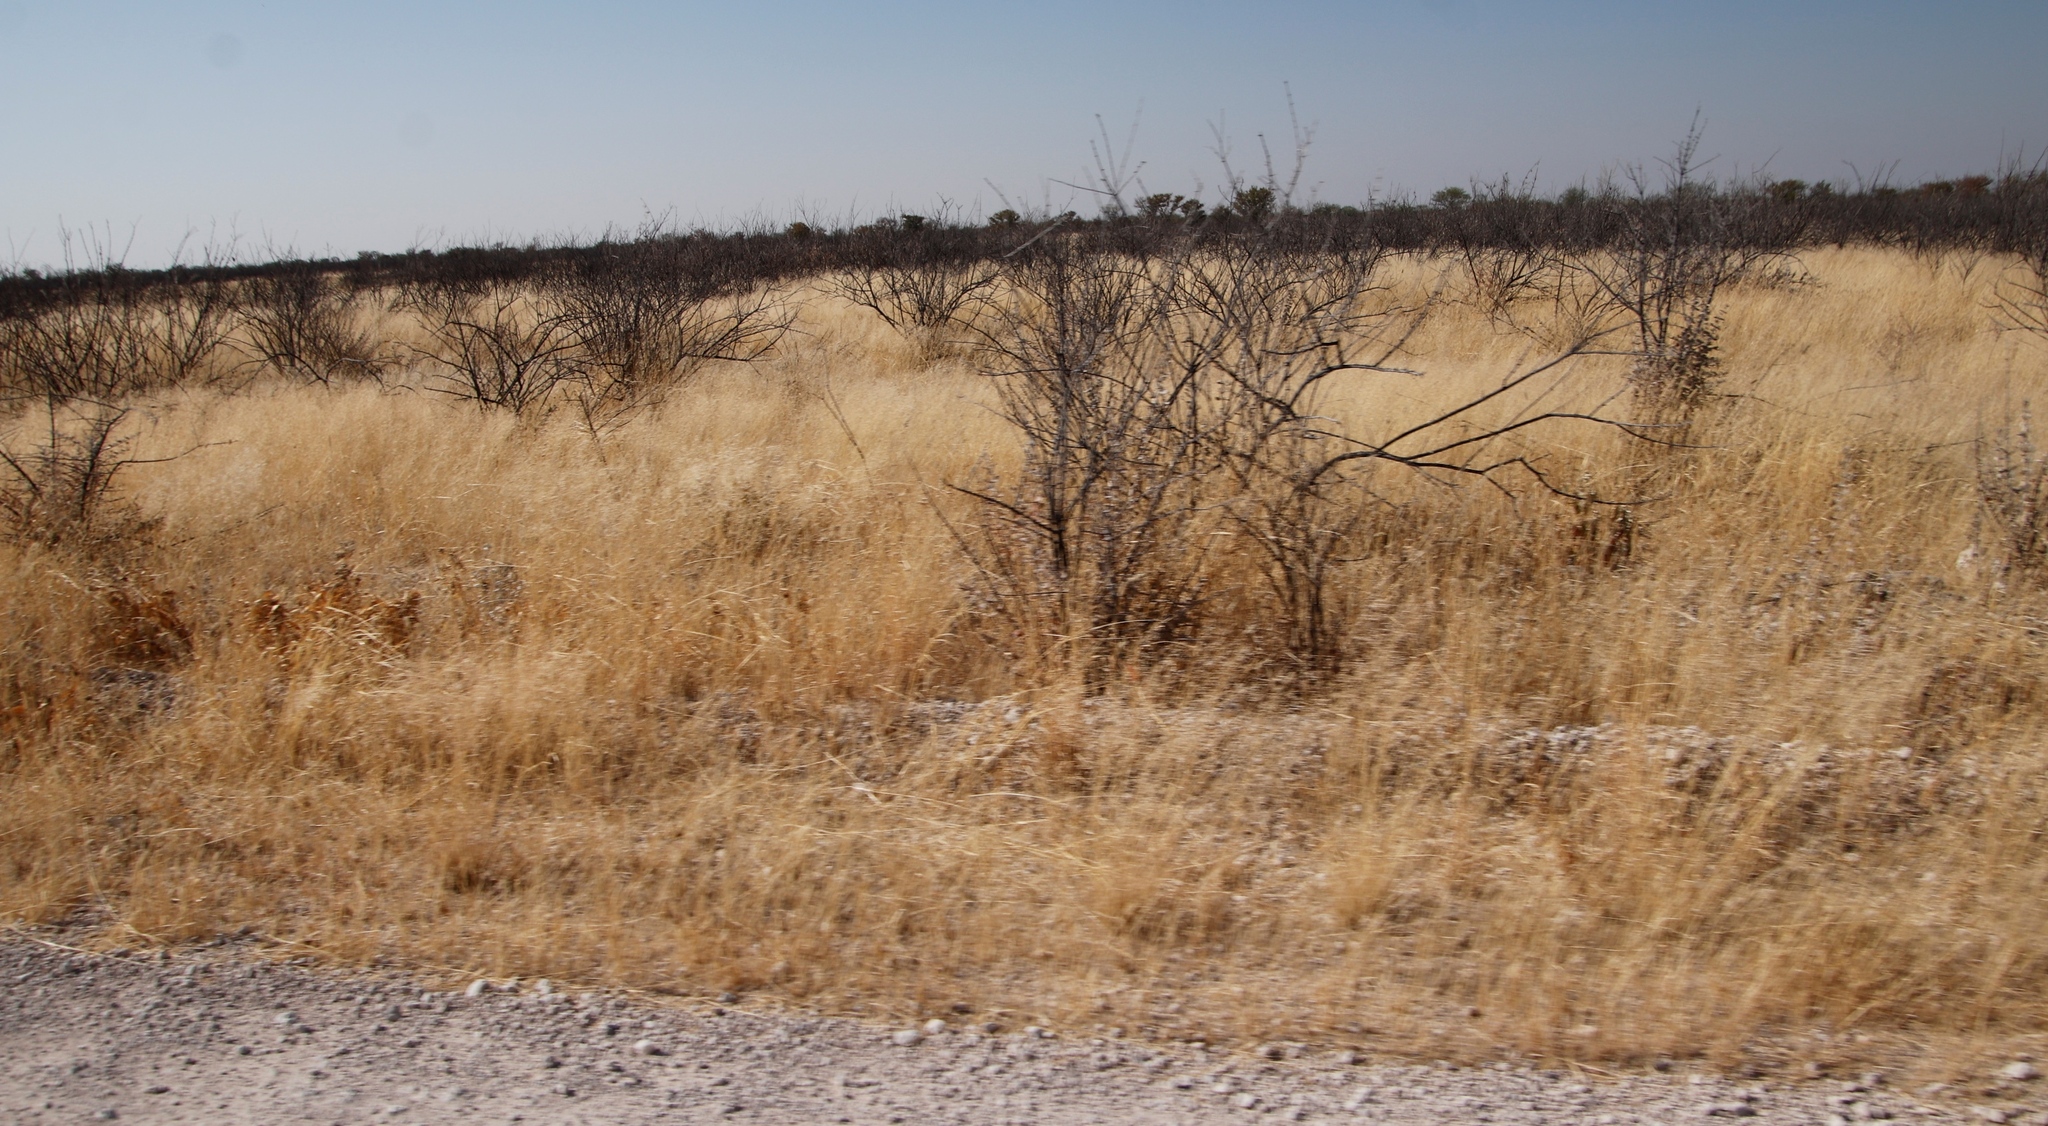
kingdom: Plantae
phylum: Tracheophyta
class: Magnoliopsida
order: Lamiales
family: Bignoniaceae
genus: Catophractes
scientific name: Catophractes alexandri
